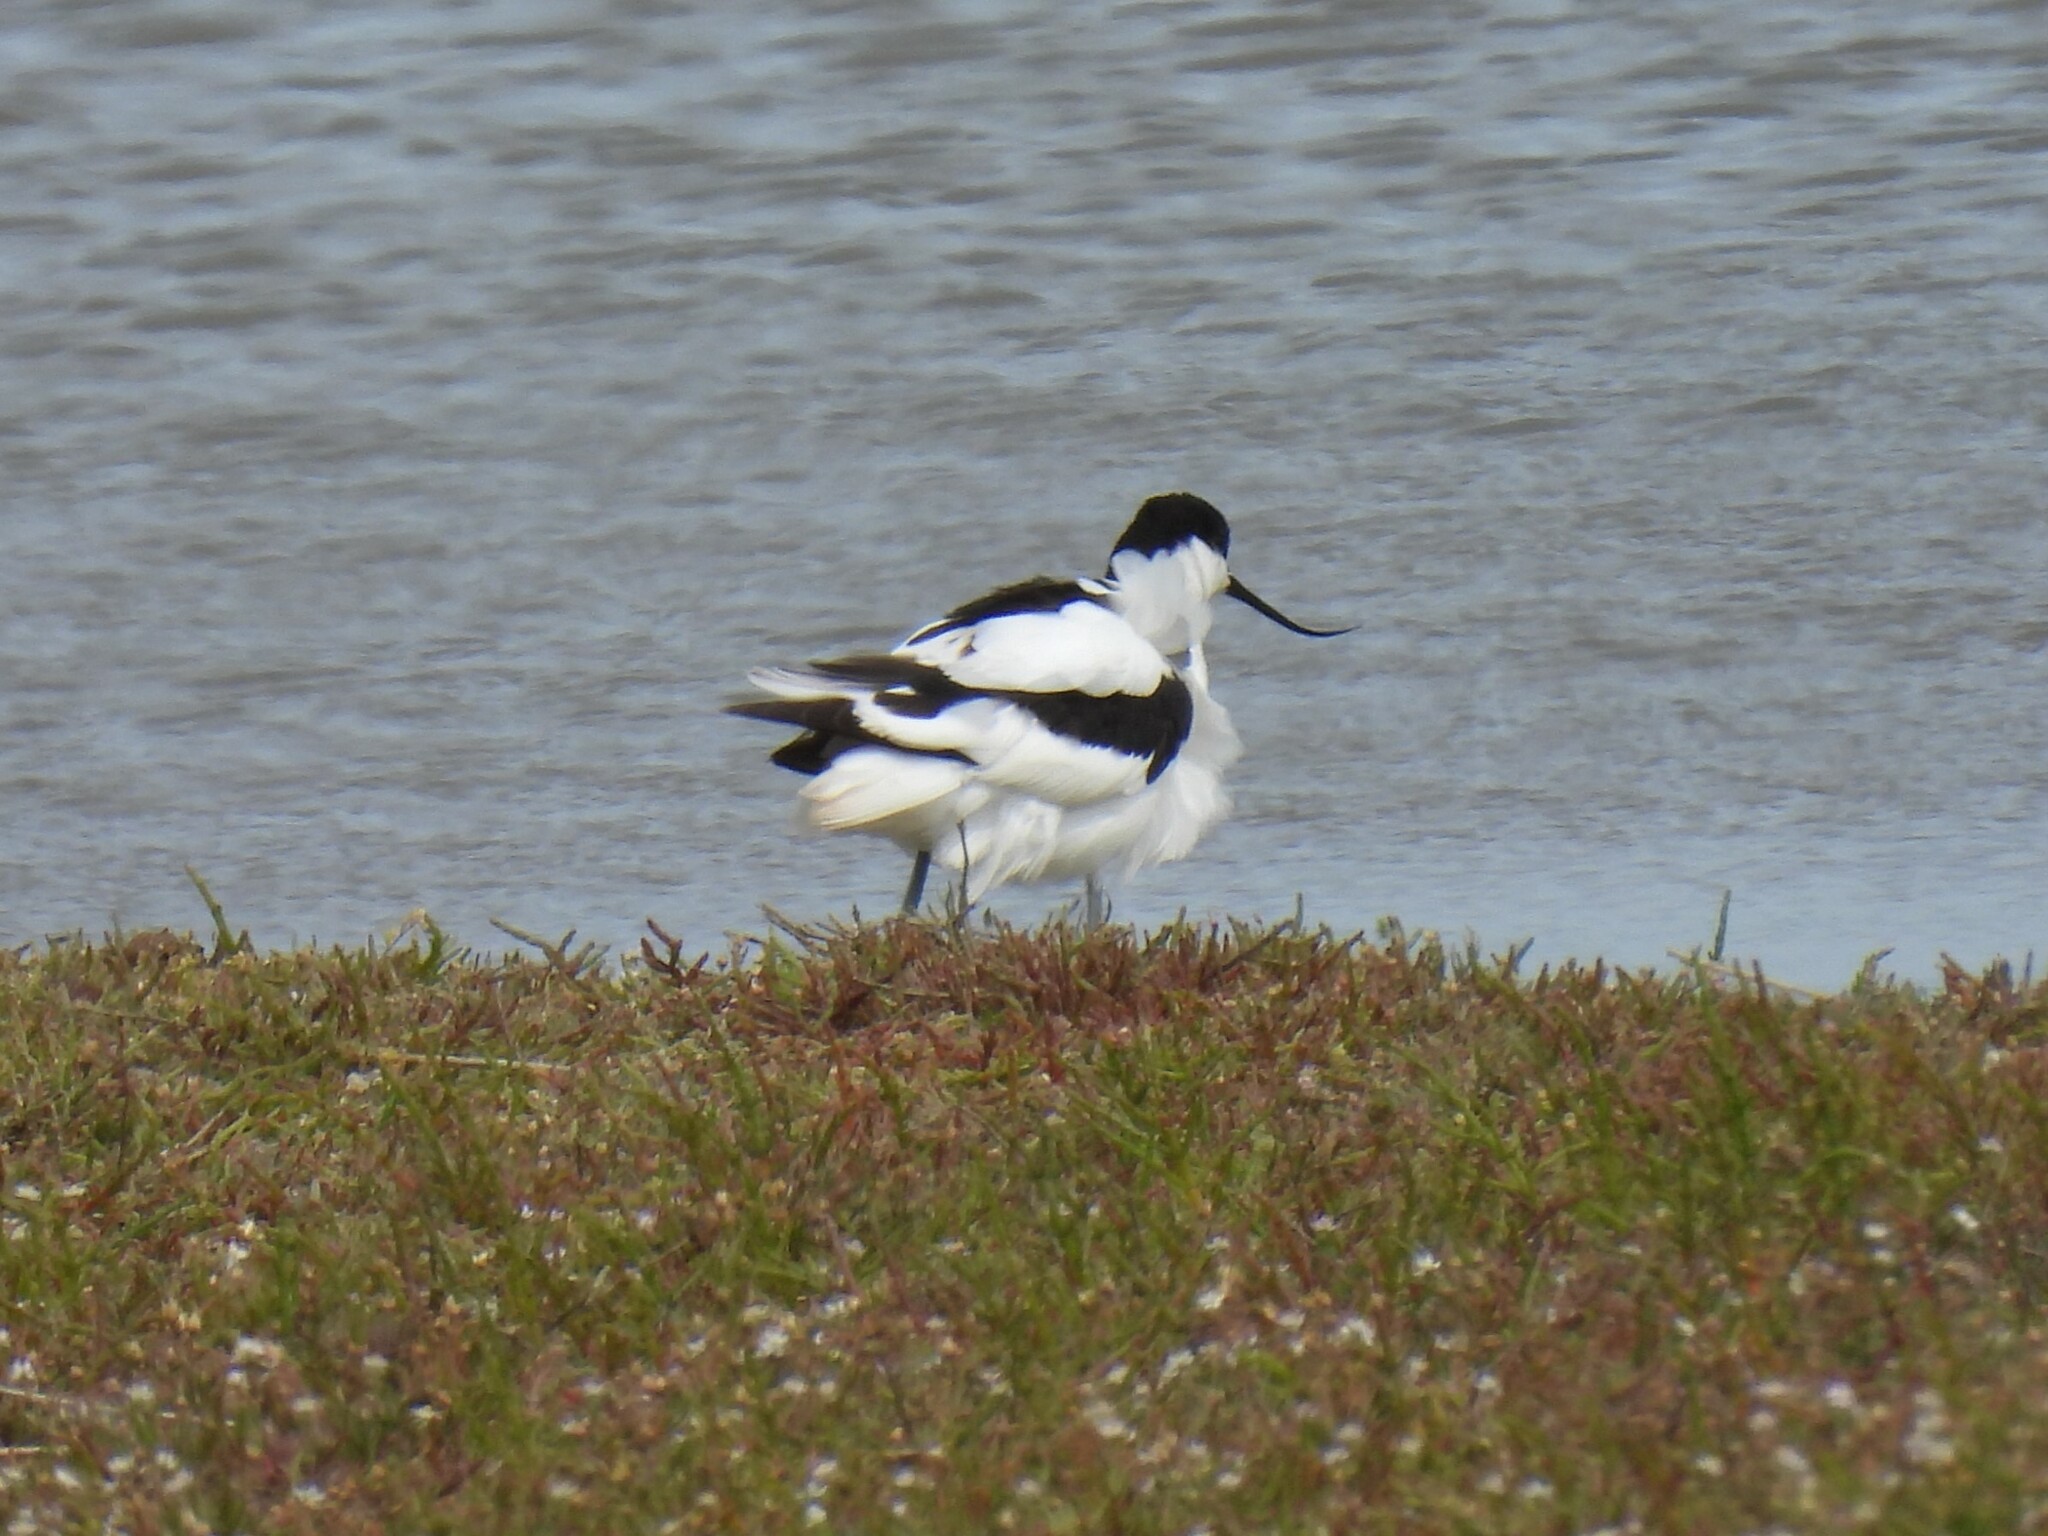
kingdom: Animalia
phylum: Chordata
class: Aves
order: Charadriiformes
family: Recurvirostridae
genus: Recurvirostra
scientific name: Recurvirostra avosetta
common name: Pied avocet
